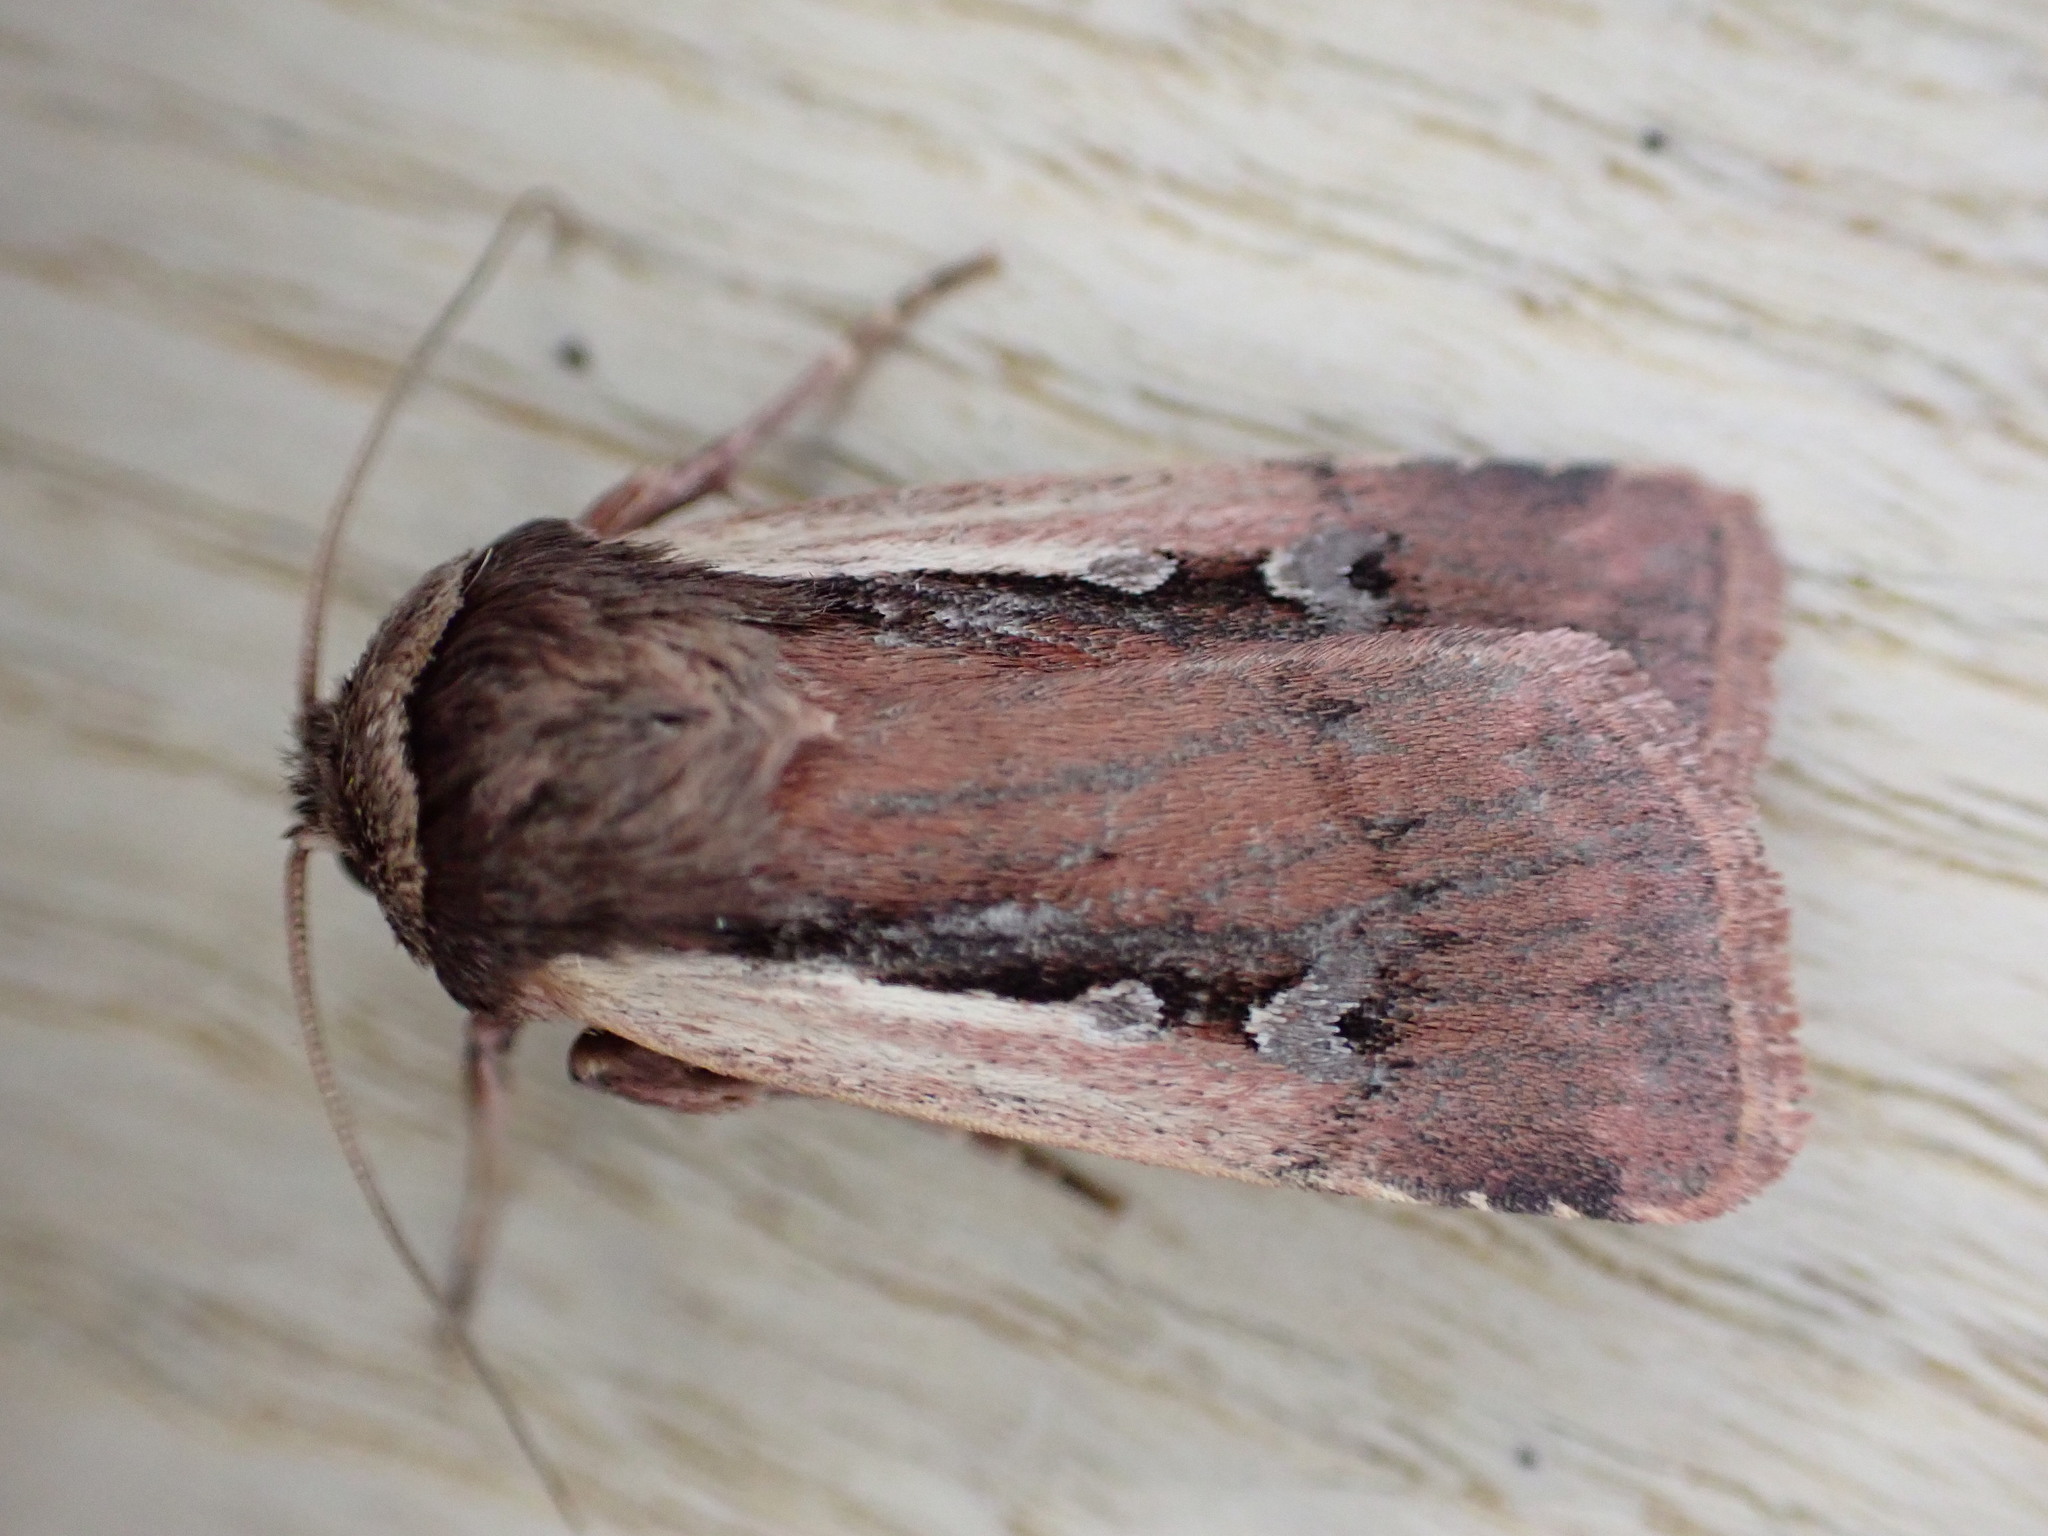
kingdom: Animalia
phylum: Arthropoda
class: Insecta
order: Lepidoptera
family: Noctuidae
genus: Ochropleura
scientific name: Ochropleura plecta
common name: Flame shoulder
